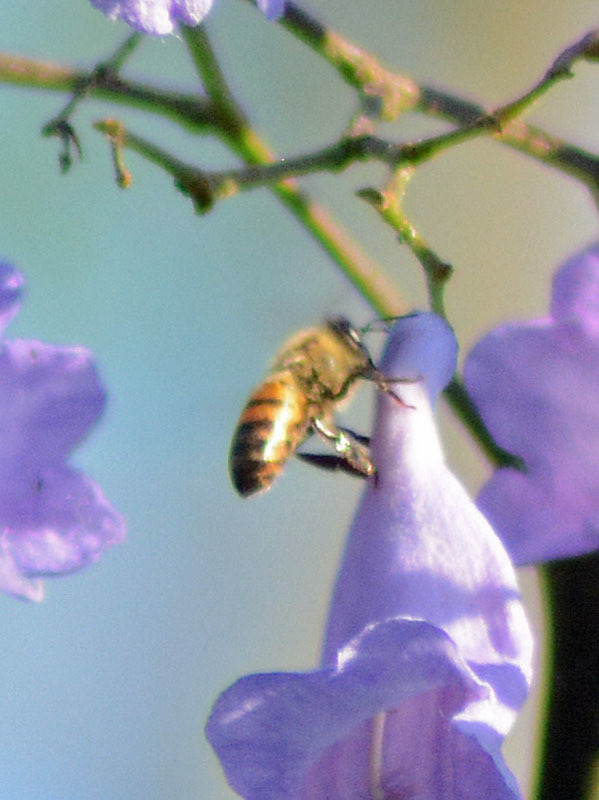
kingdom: Animalia
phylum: Arthropoda
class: Insecta
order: Hymenoptera
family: Apidae
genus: Apis
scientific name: Apis mellifera
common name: Honey bee
